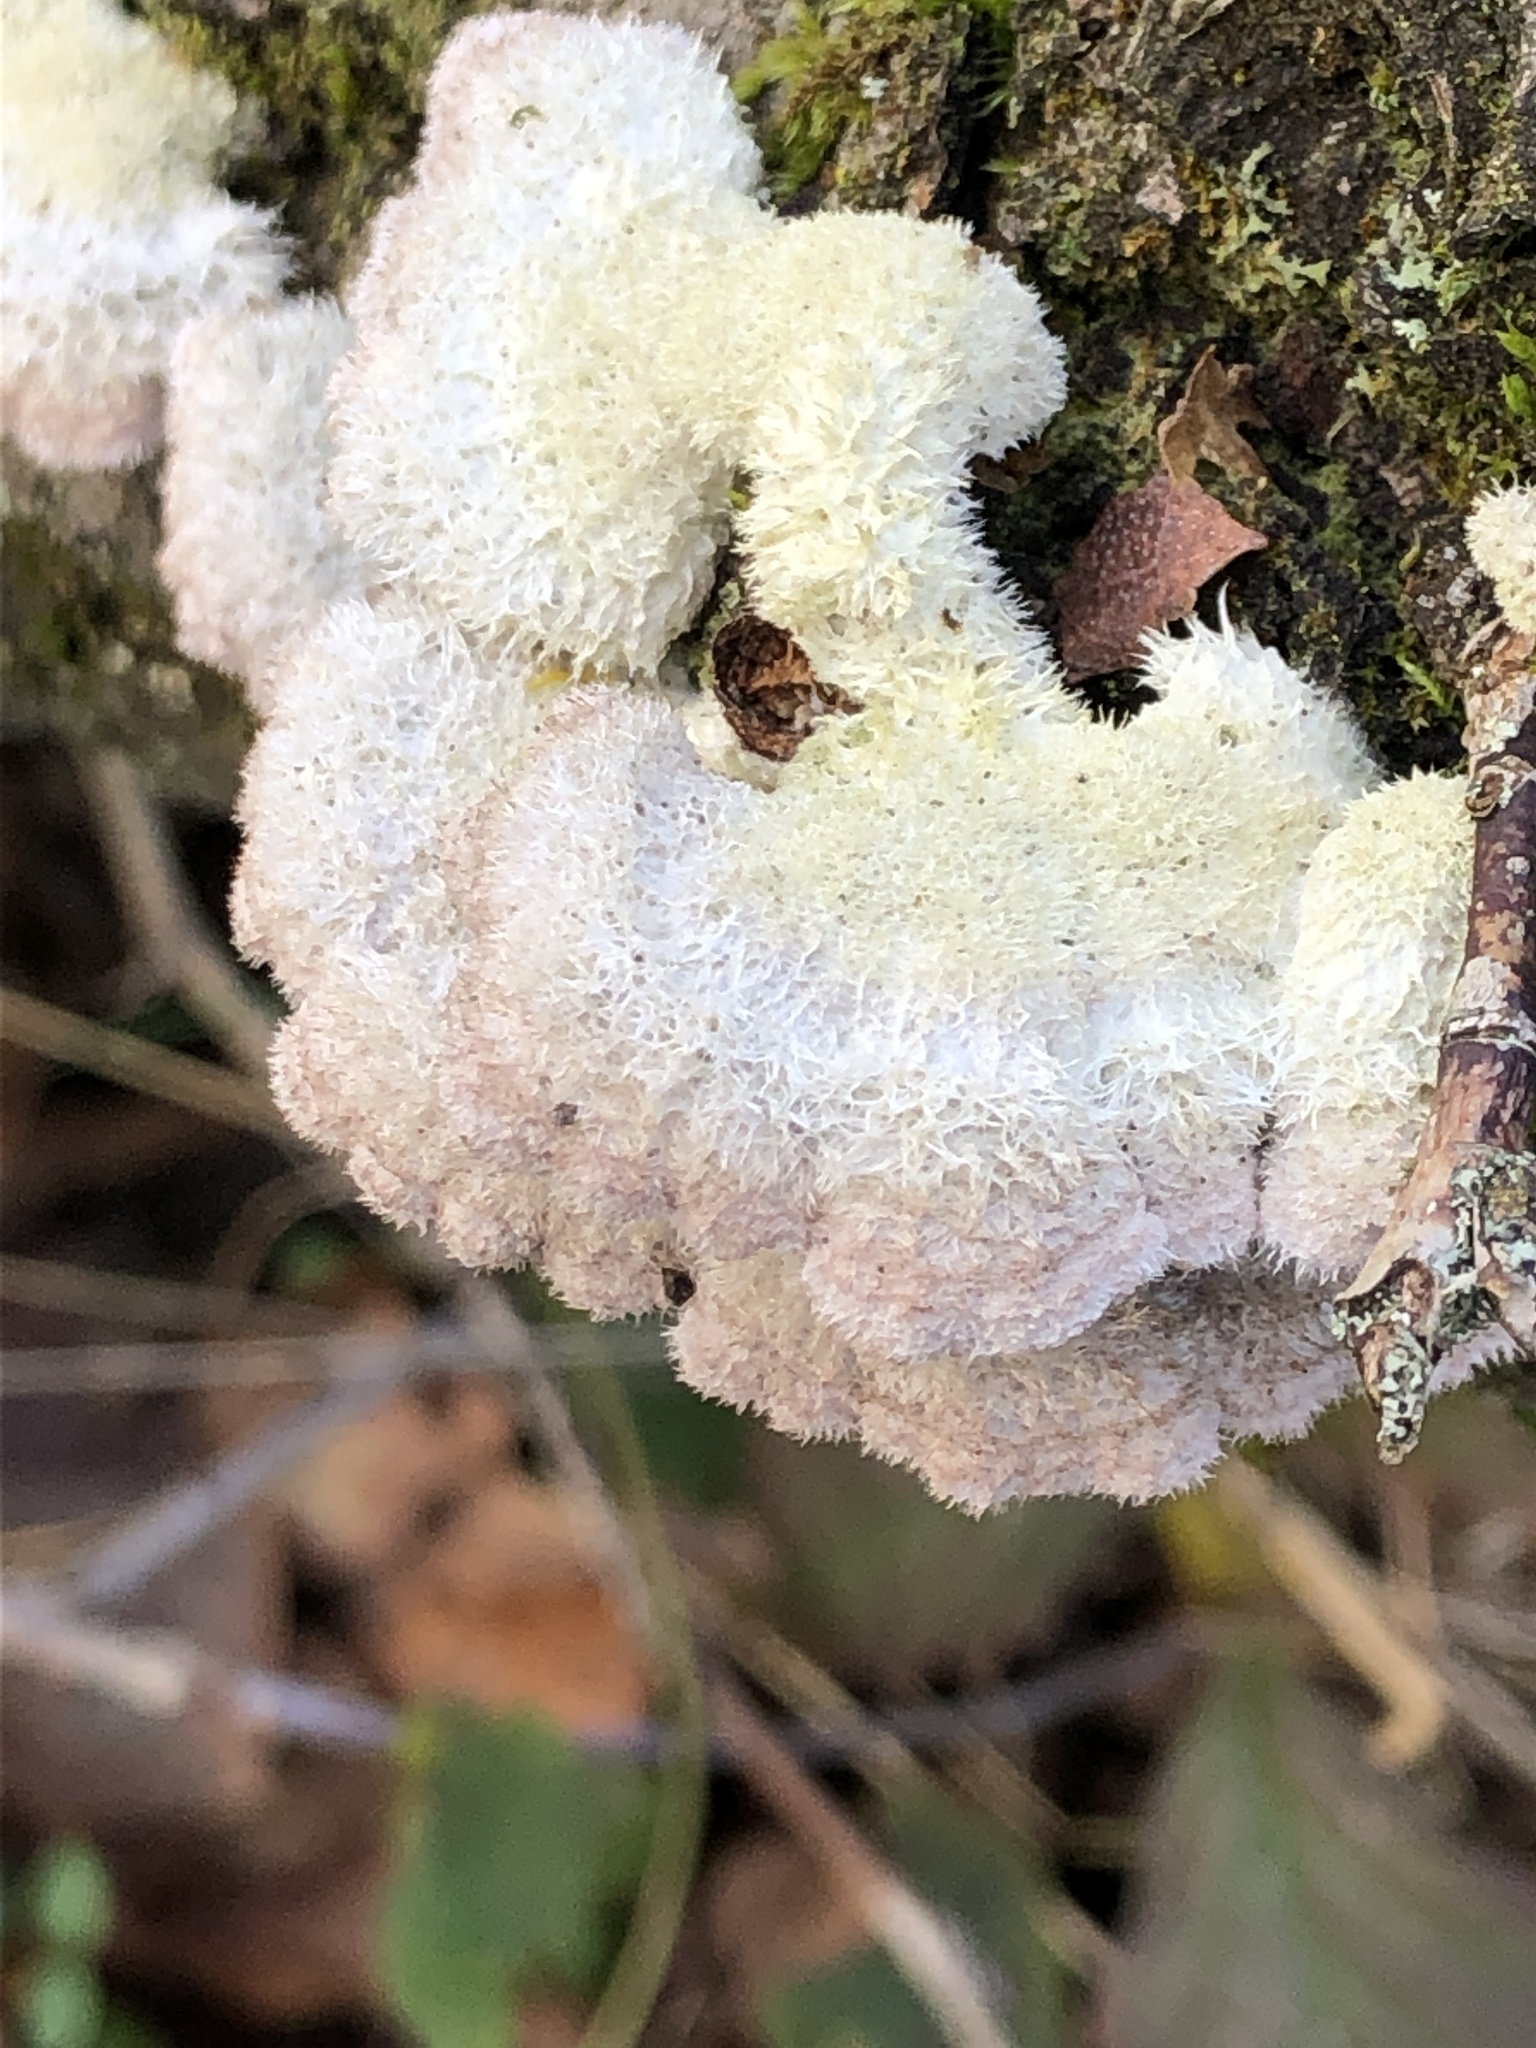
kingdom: Fungi
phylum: Basidiomycota
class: Agaricomycetes
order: Agaricales
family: Schizophyllaceae
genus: Schizophyllum
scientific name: Schizophyllum commune
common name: Common porecrust
